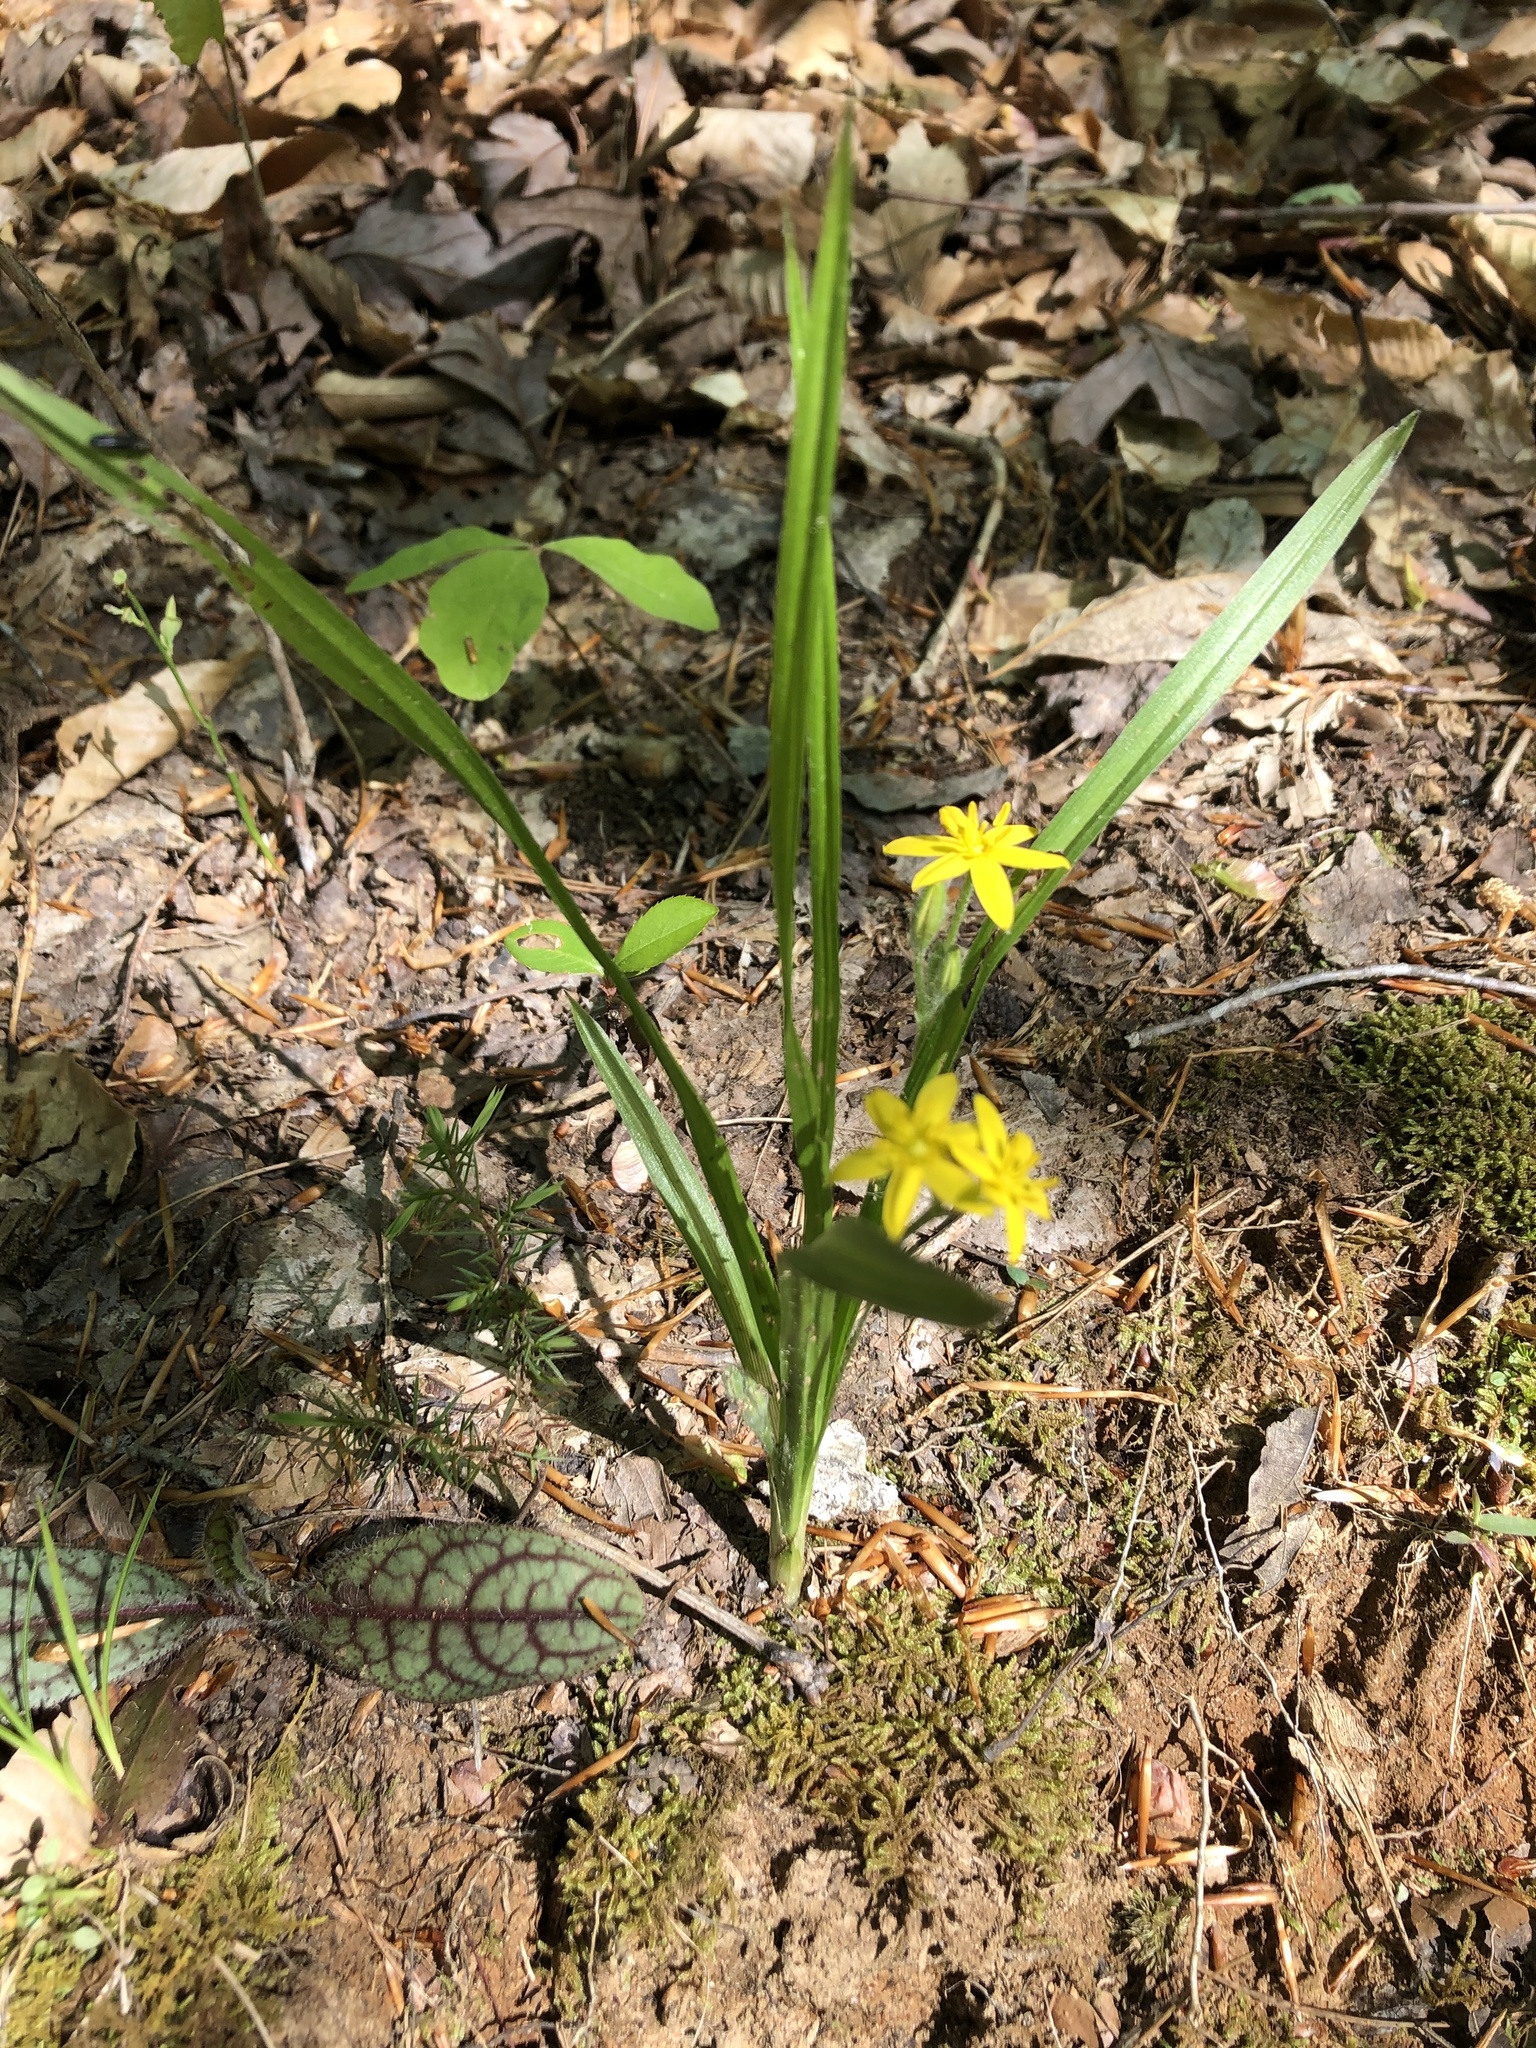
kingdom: Plantae
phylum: Tracheophyta
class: Liliopsida
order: Asparagales
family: Hypoxidaceae
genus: Hypoxis
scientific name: Hypoxis hirsuta
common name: Common goldstar
